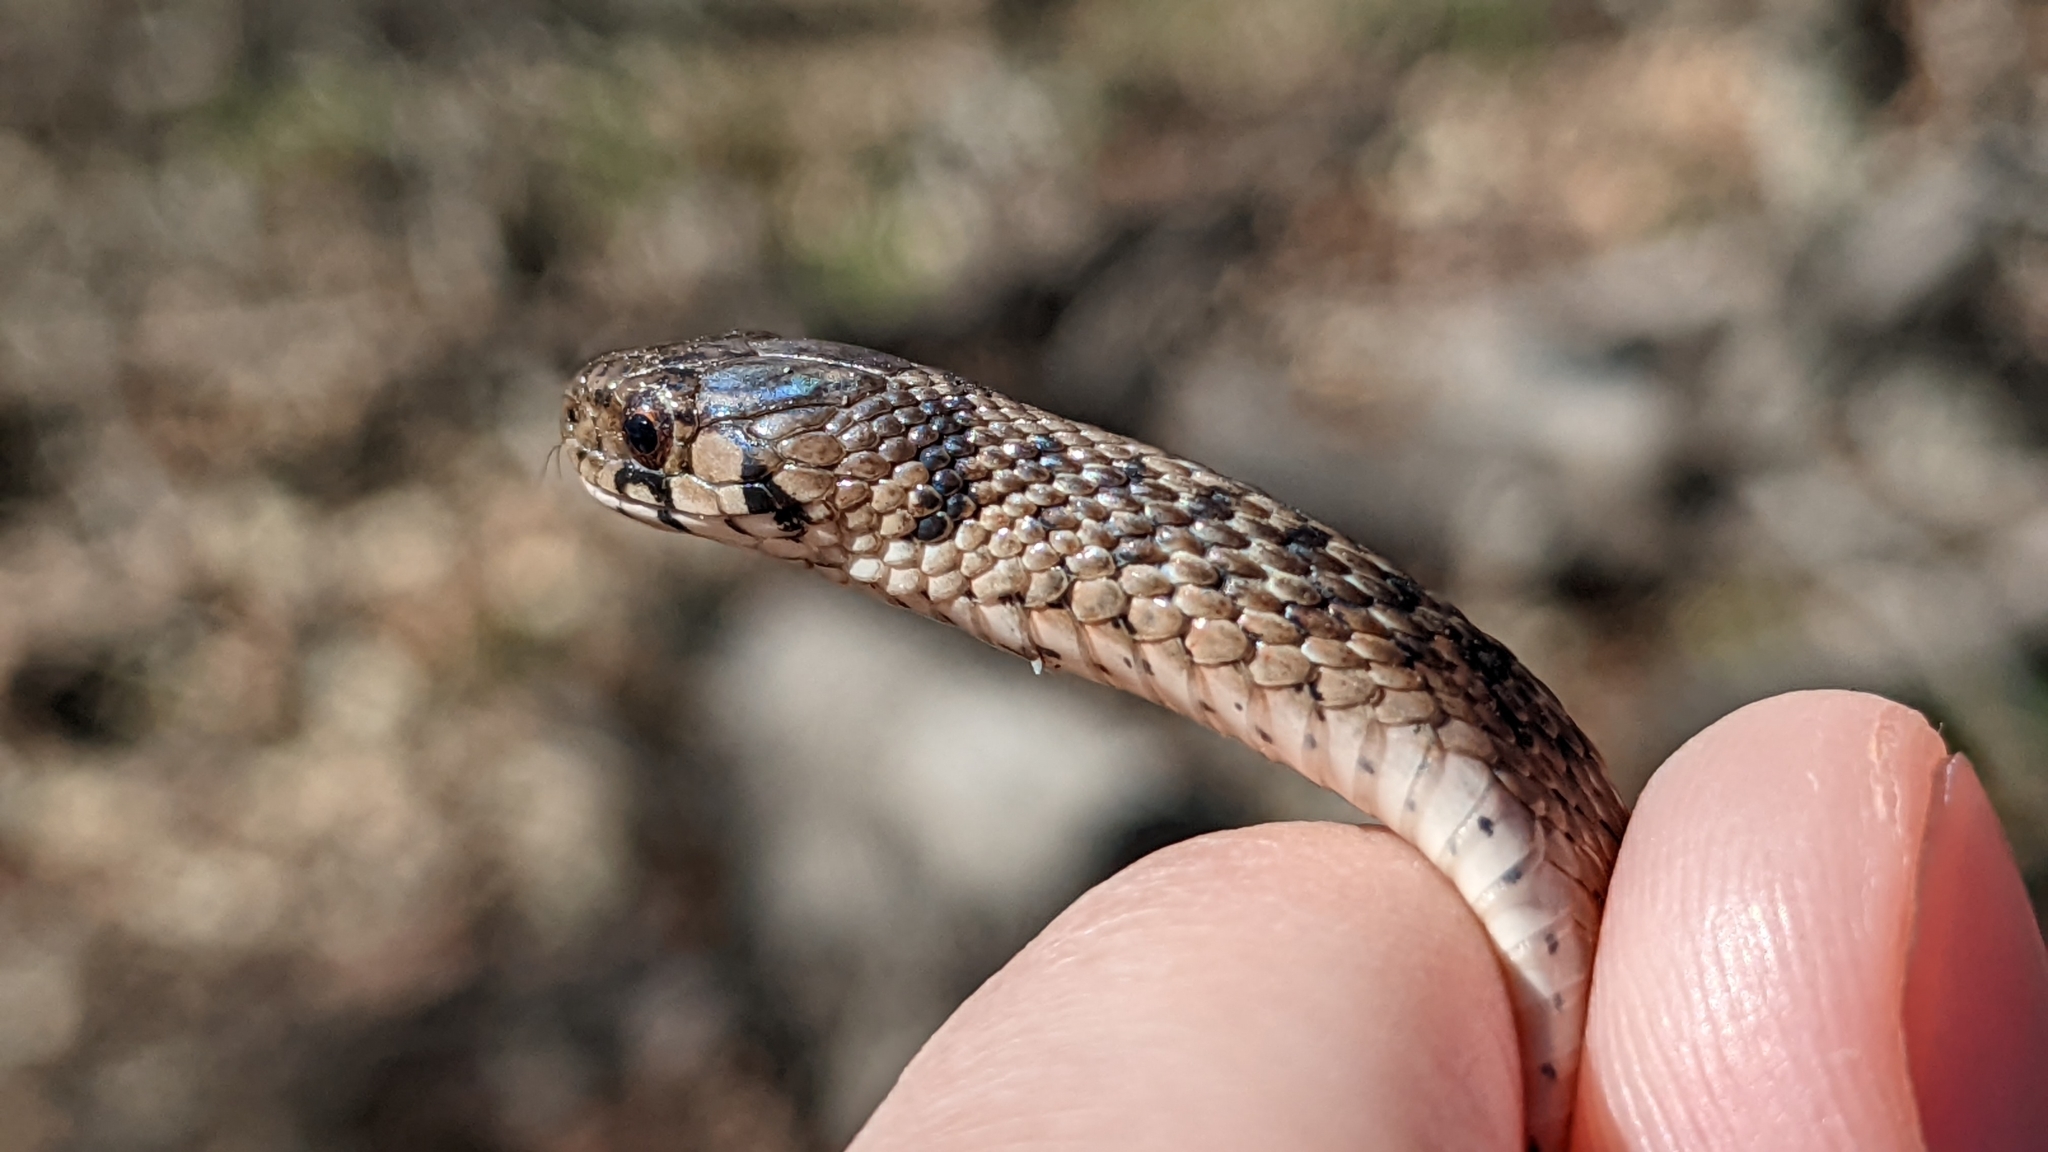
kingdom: Animalia
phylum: Chordata
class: Squamata
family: Colubridae
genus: Storeria
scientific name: Storeria dekayi
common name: (dekay’s) brown snake
